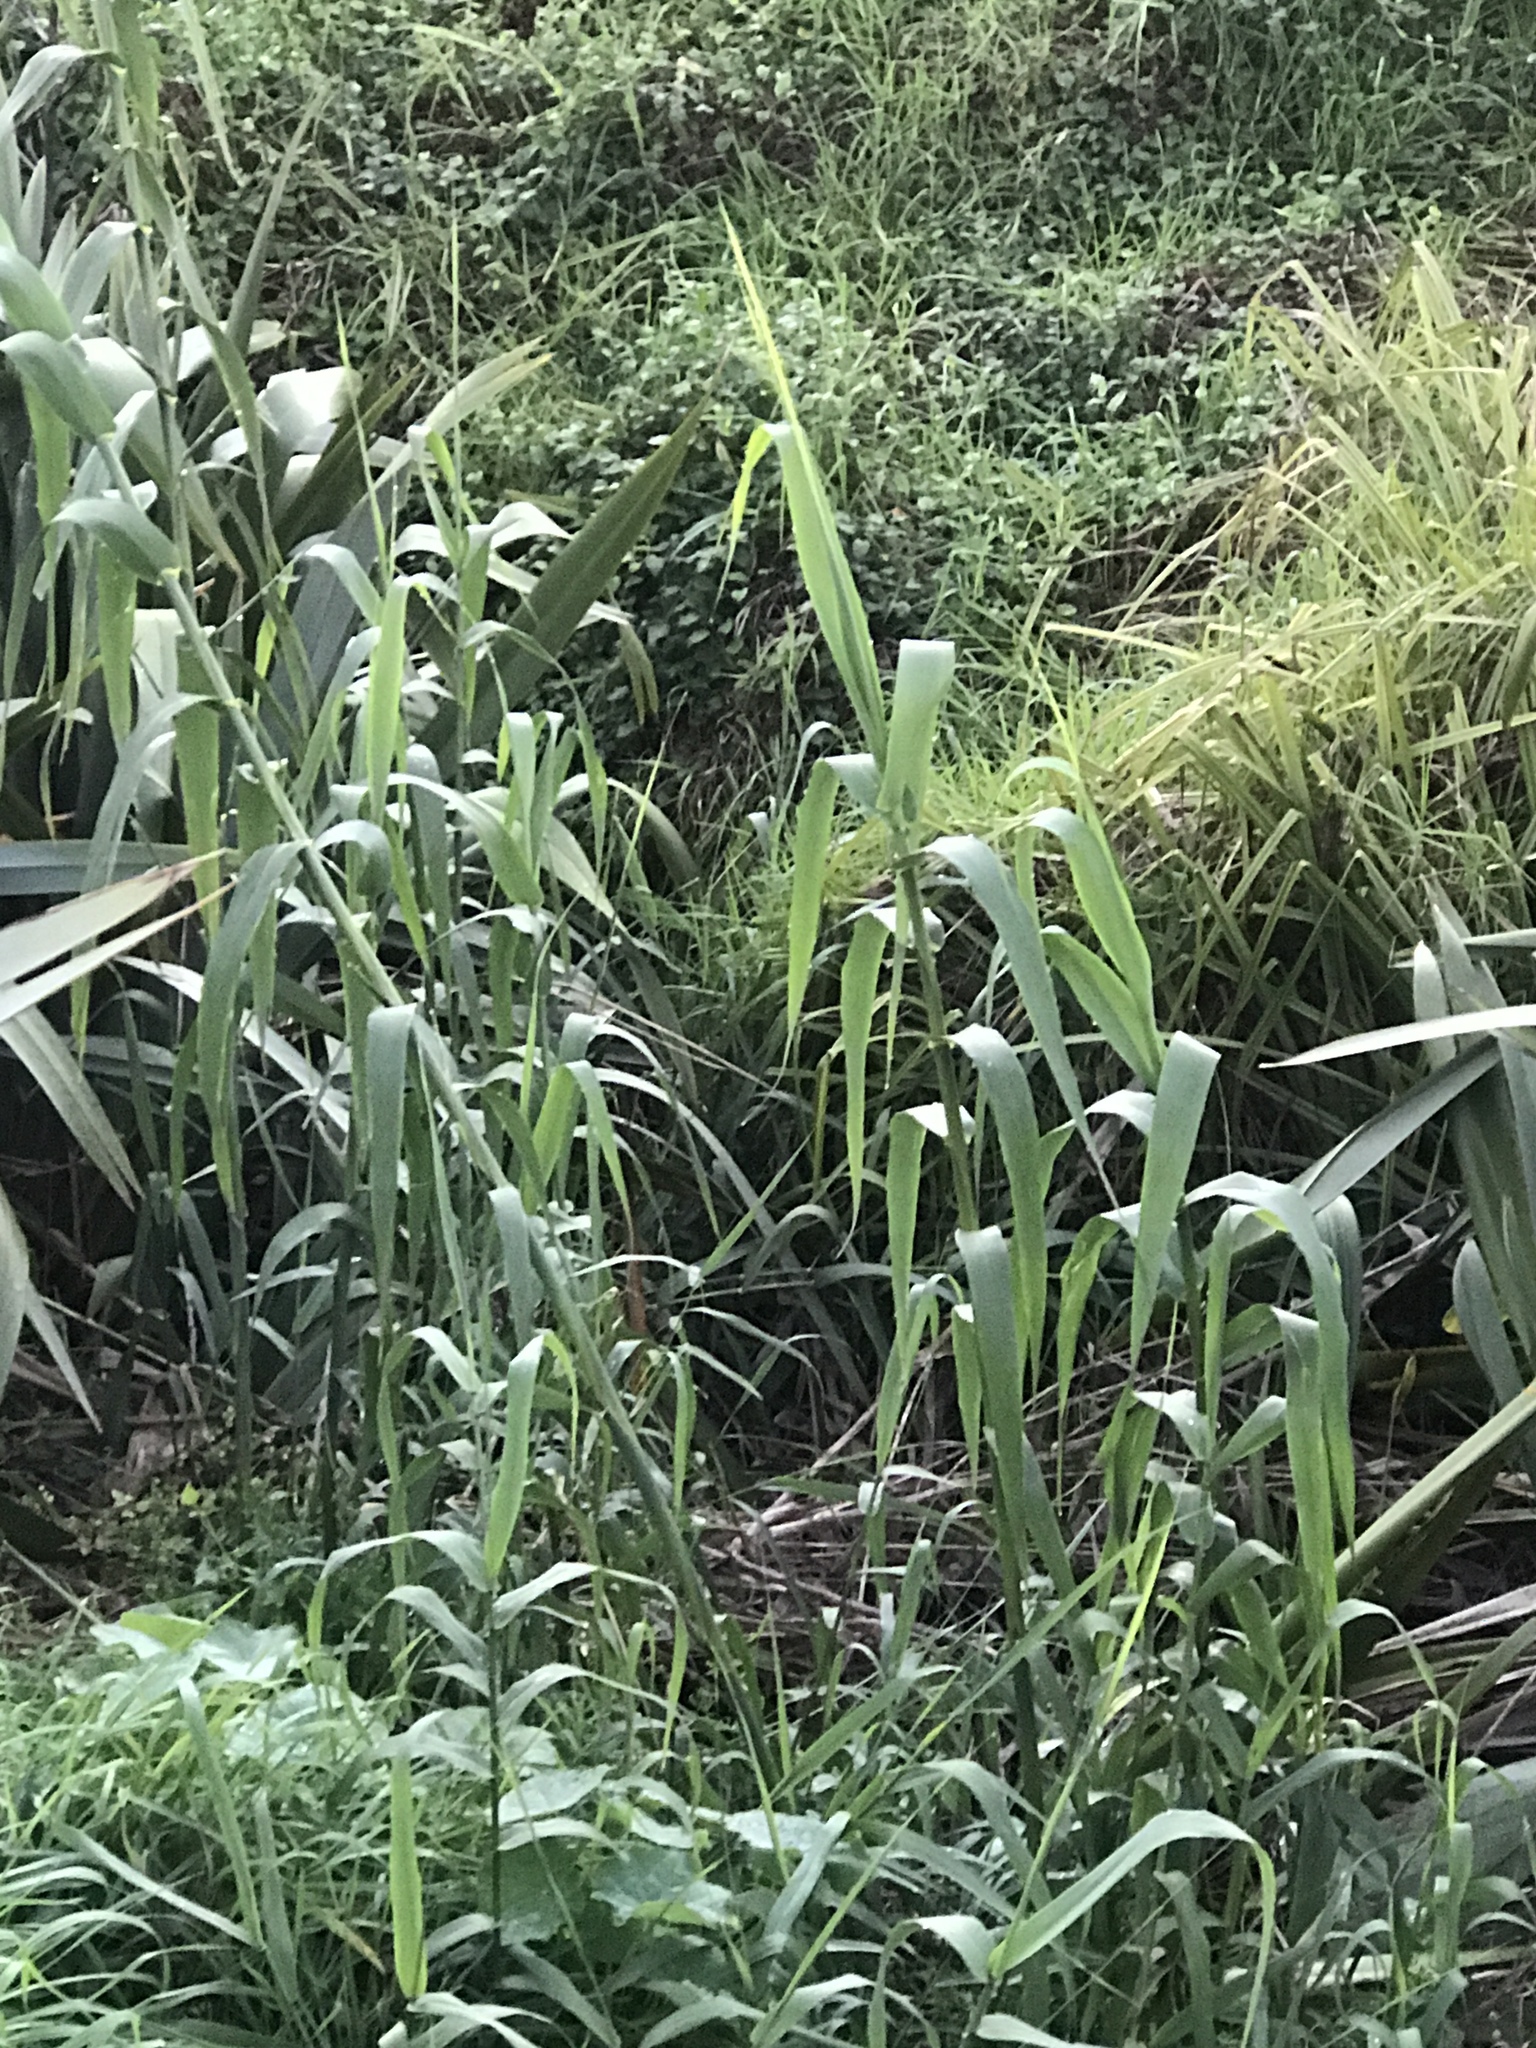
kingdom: Plantae
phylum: Tracheophyta
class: Liliopsida
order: Poales
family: Poaceae
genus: Arundo
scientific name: Arundo donax
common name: Giant reed
